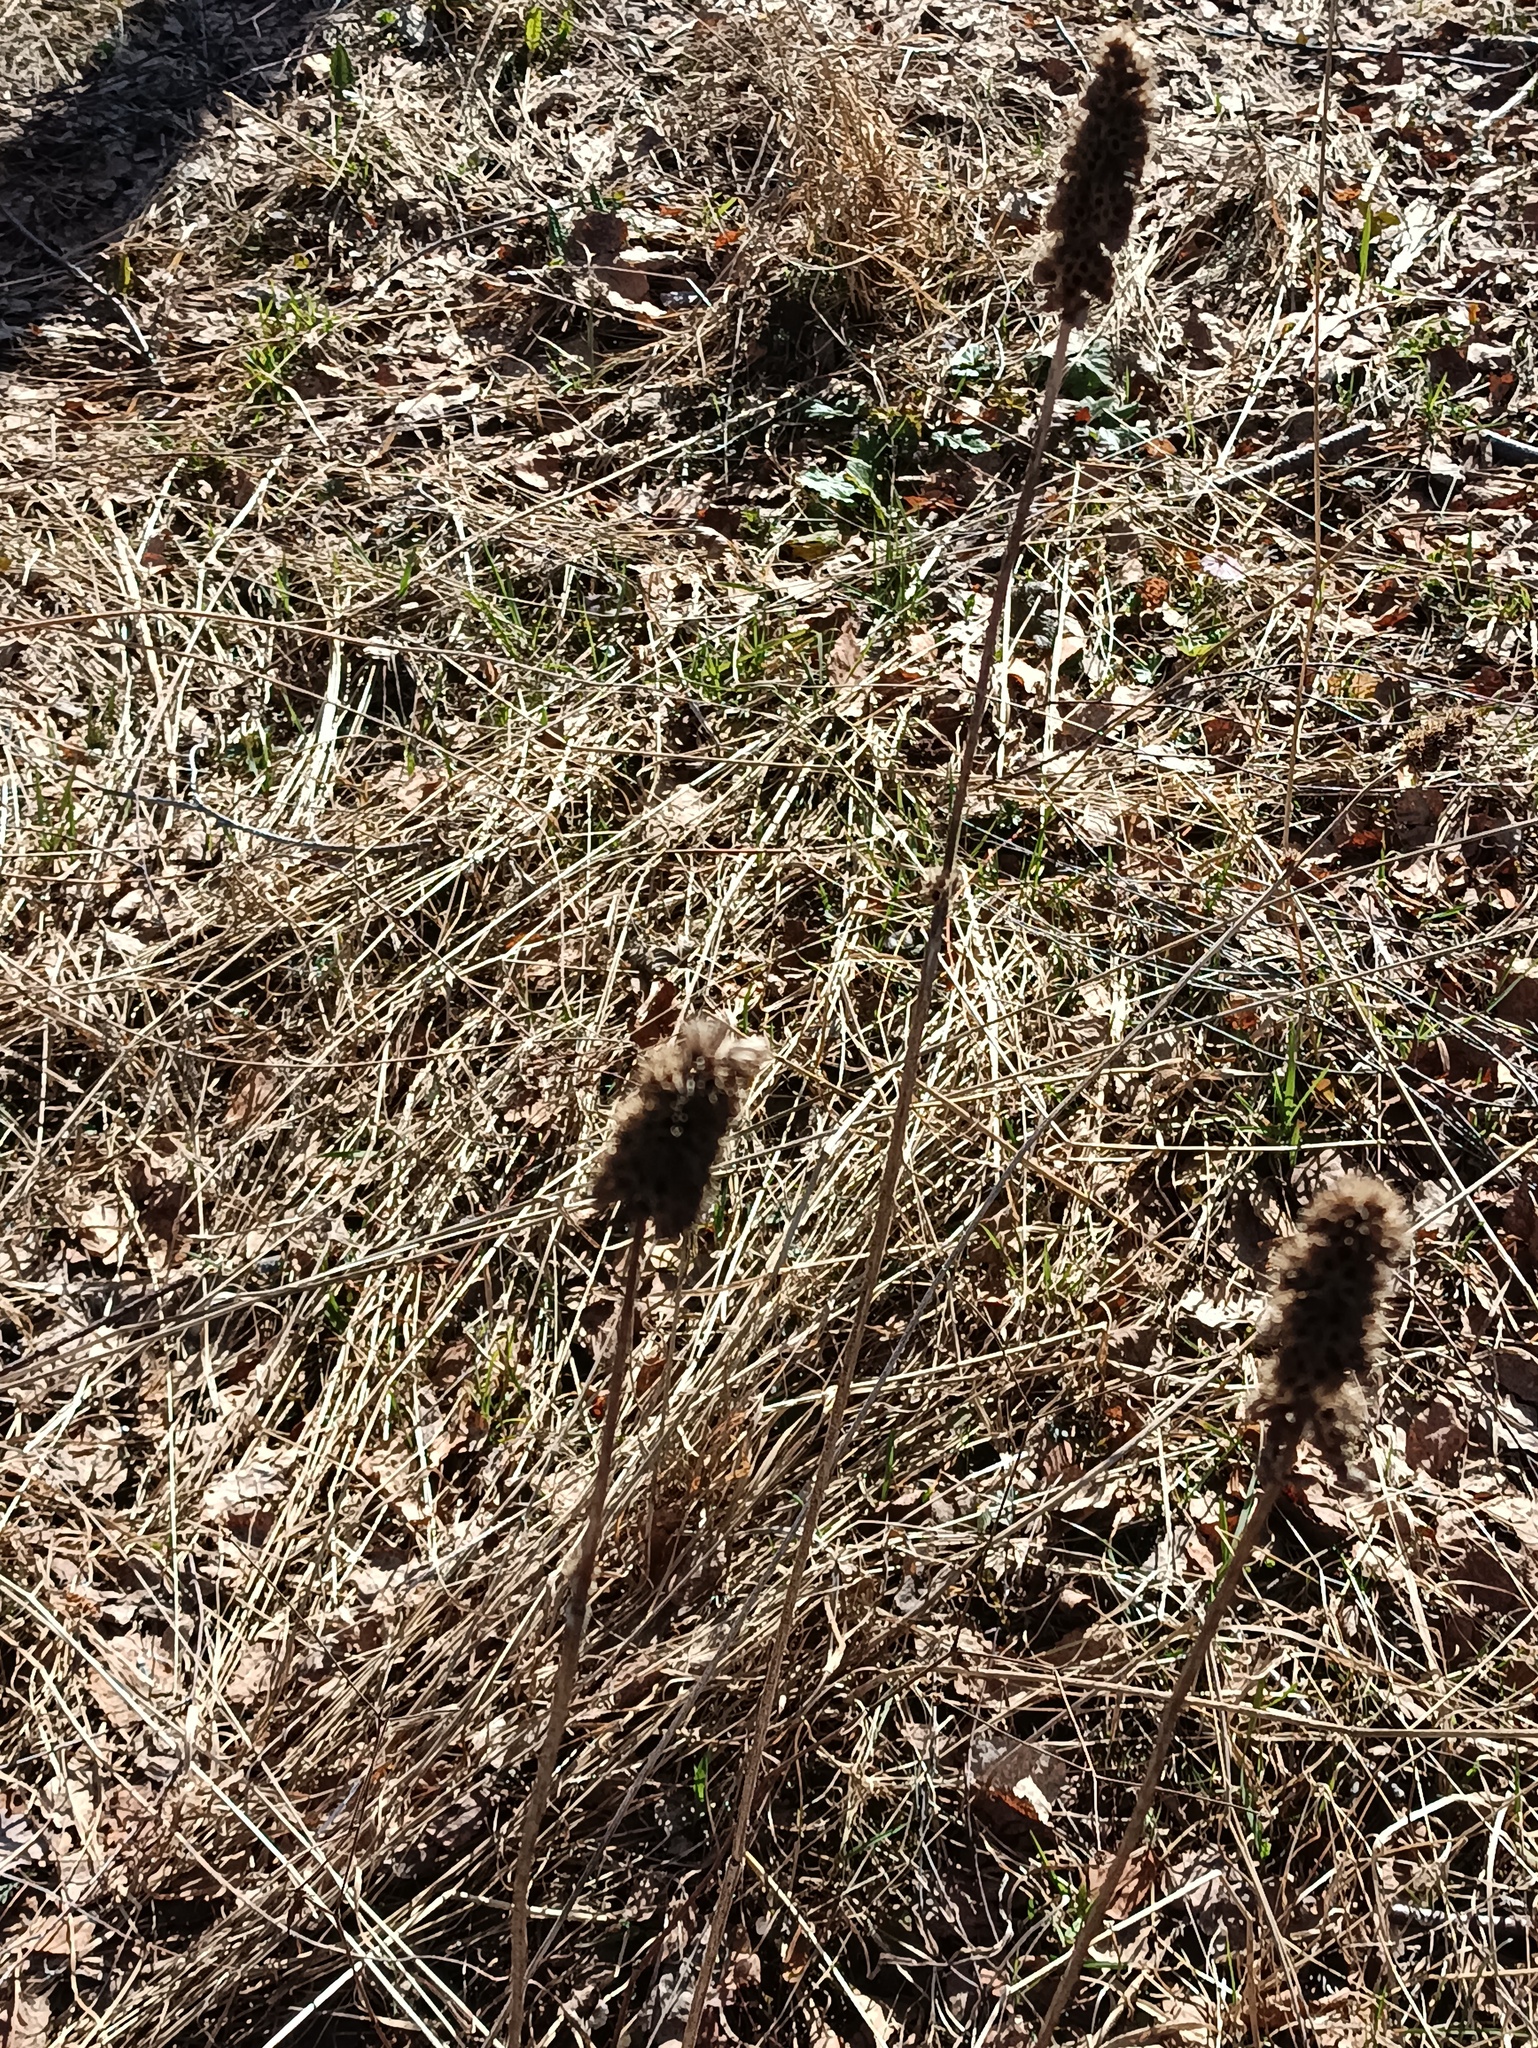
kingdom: Plantae
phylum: Tracheophyta
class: Magnoliopsida
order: Lamiales
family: Lamiaceae
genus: Betonica
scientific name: Betonica officinalis
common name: Bishop's-wort
